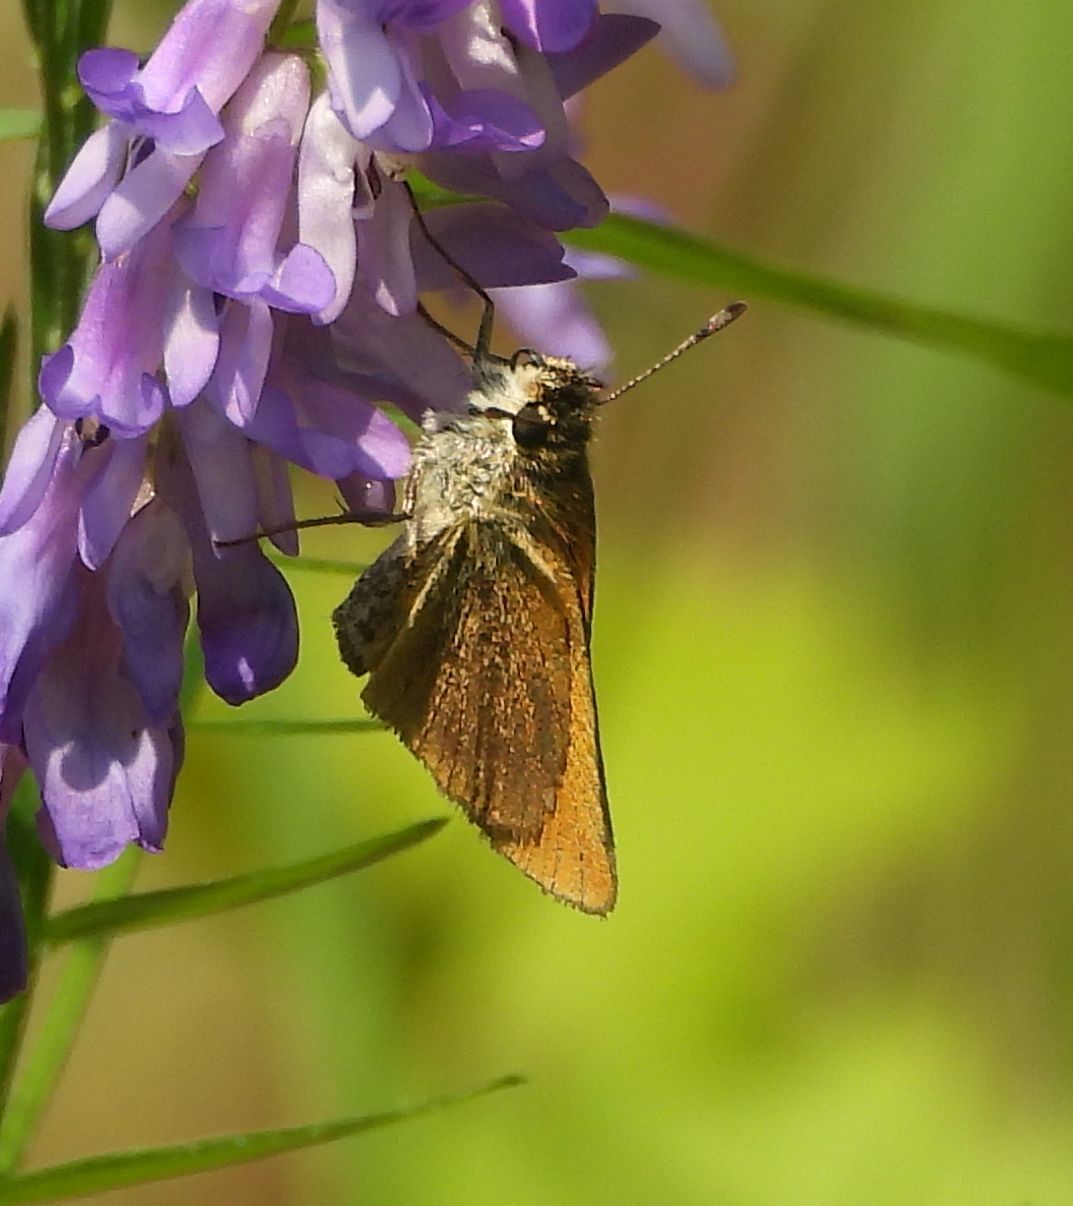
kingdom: Animalia
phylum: Arthropoda
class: Insecta
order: Lepidoptera
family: Hesperiidae
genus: Euphyes
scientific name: Euphyes vestris
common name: Dun skipper
